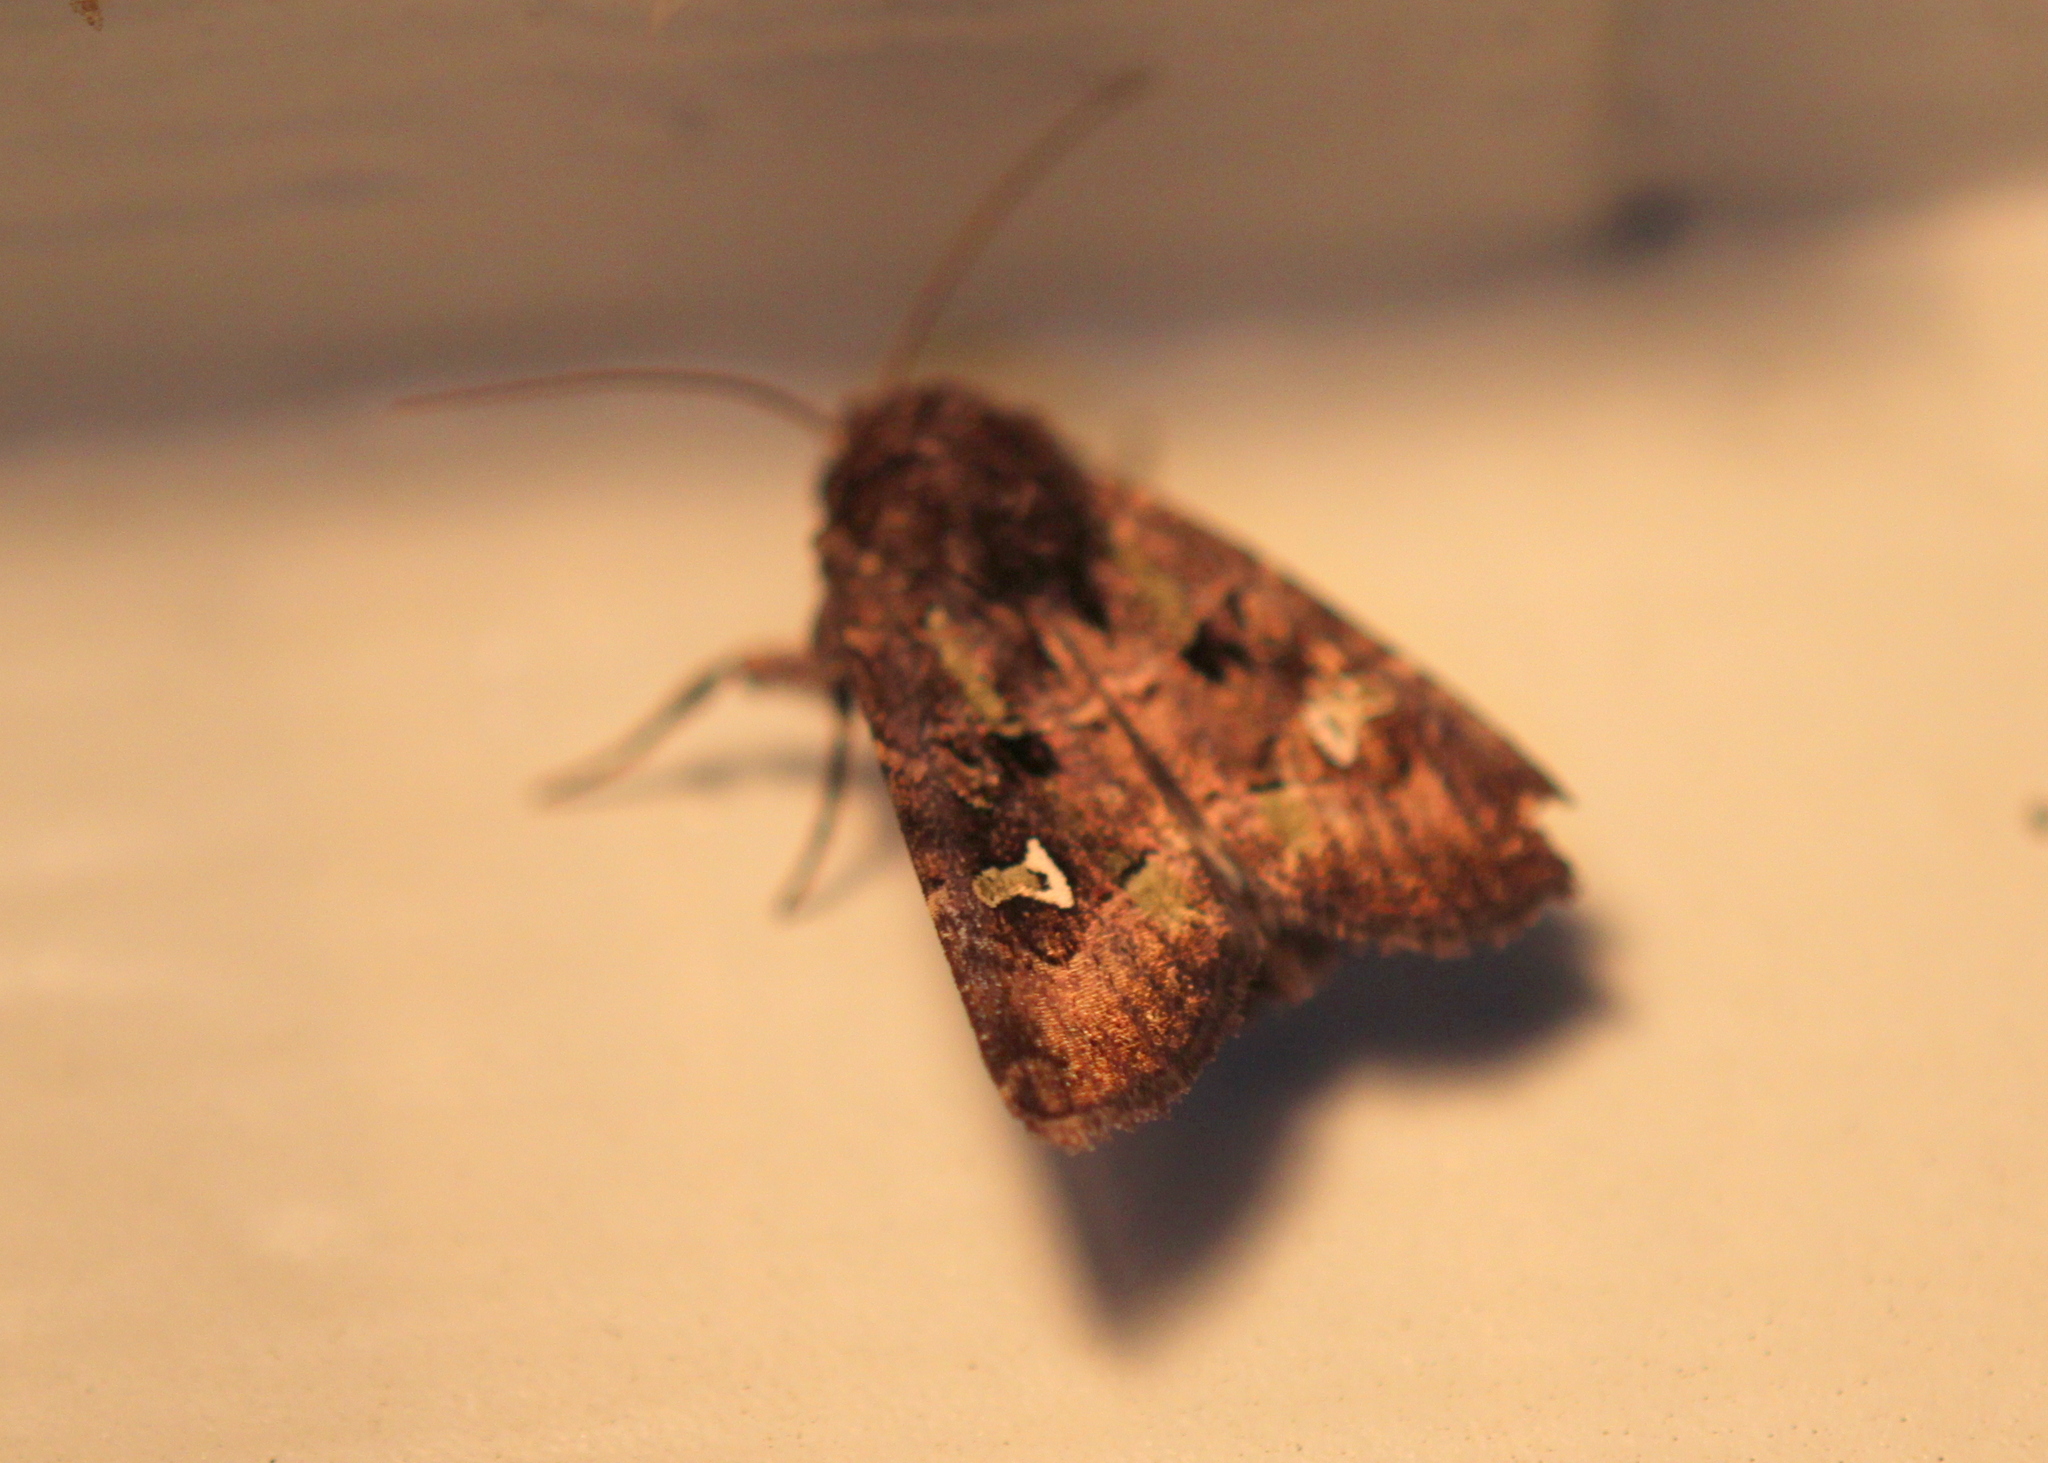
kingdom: Animalia
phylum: Arthropoda
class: Insecta
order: Lepidoptera
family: Noctuidae
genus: Lacinipolia
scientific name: Lacinipolia renigera
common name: Kidney-spotted minor
